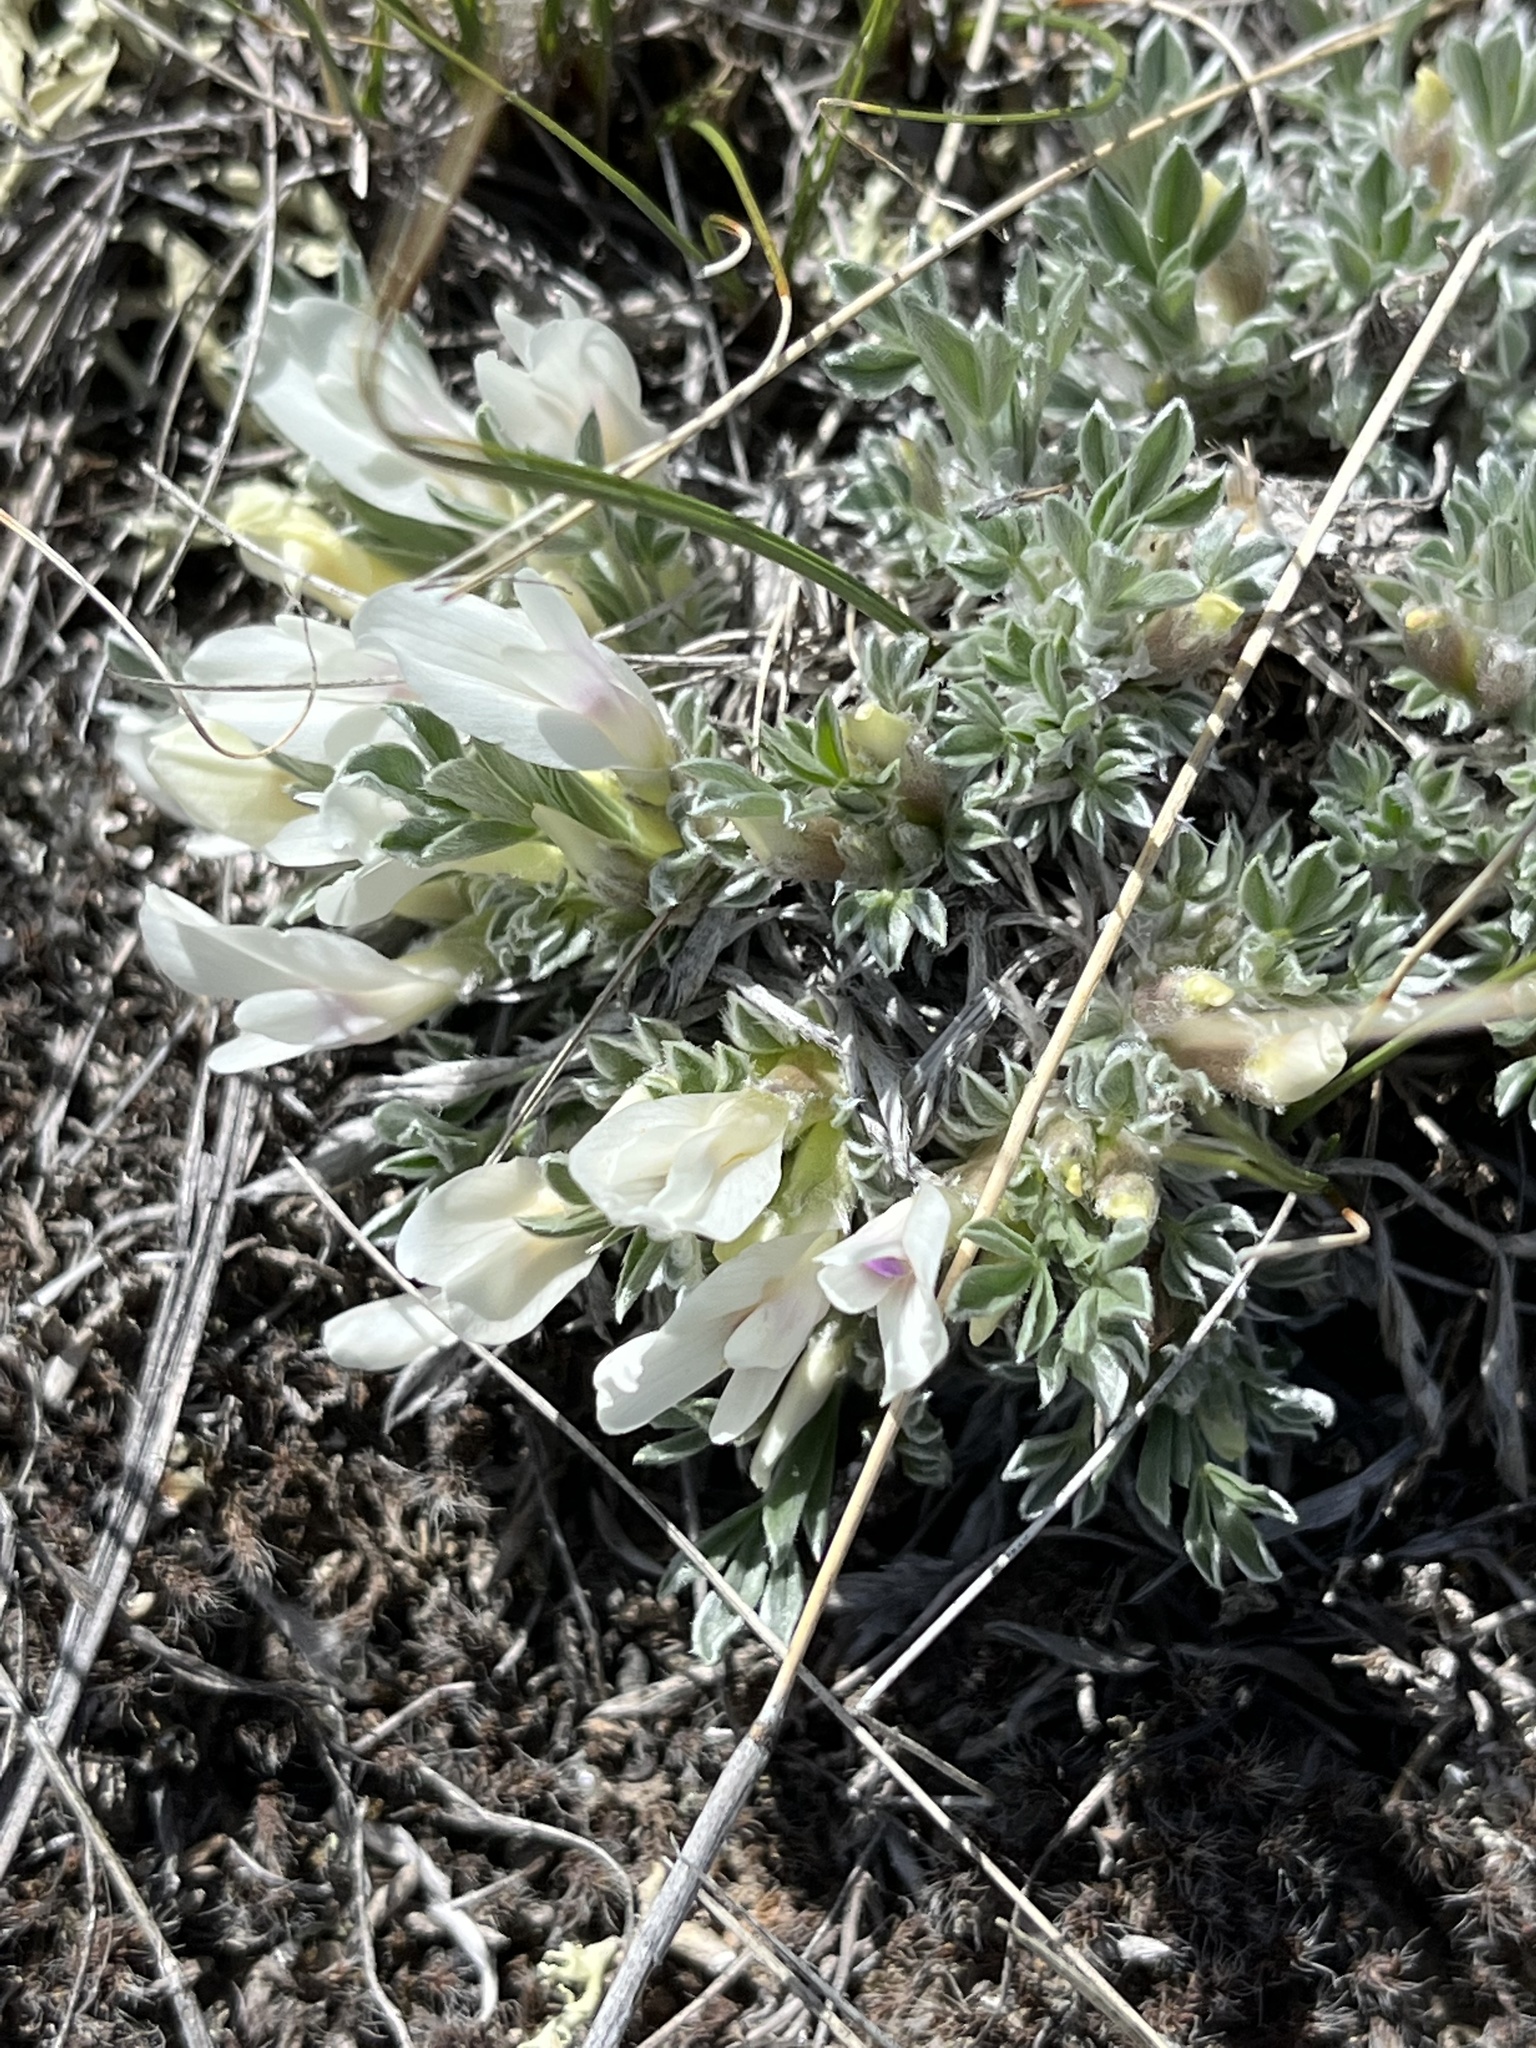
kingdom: Plantae
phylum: Tracheophyta
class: Magnoliopsida
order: Fabales
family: Fabaceae
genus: Astragalus
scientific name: Astragalus gilviflorus
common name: Cushion milk-vetch
